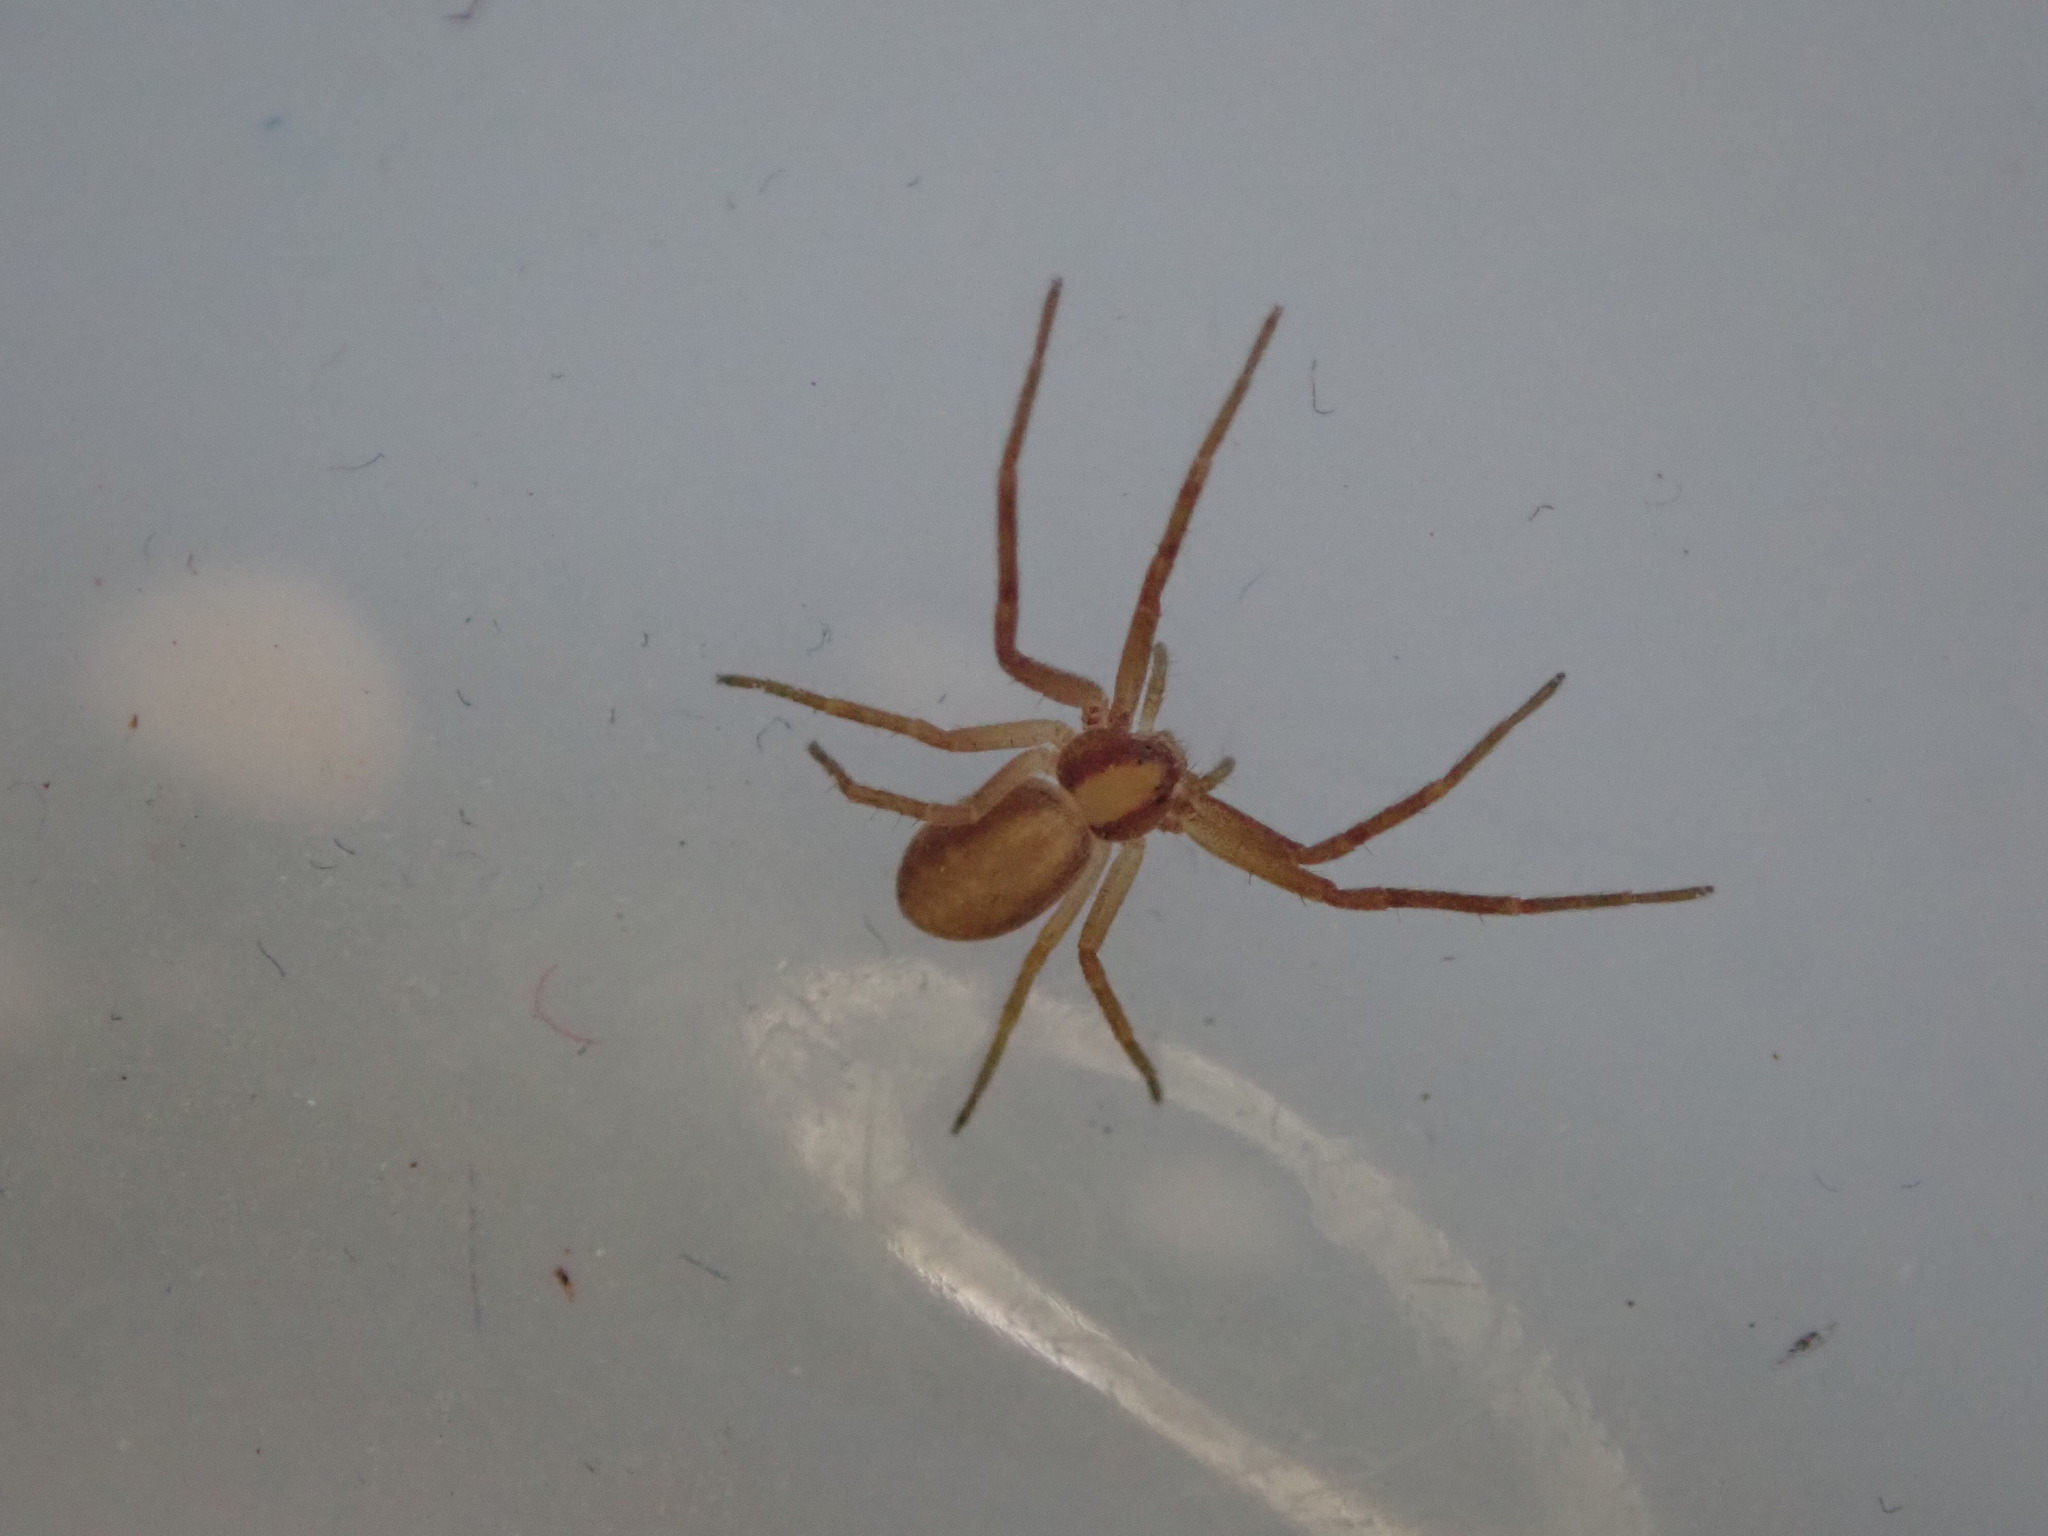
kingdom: Animalia
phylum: Arthropoda
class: Arachnida
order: Araneae
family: Philodromidae
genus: Philodromus
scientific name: Philodromus rufus
